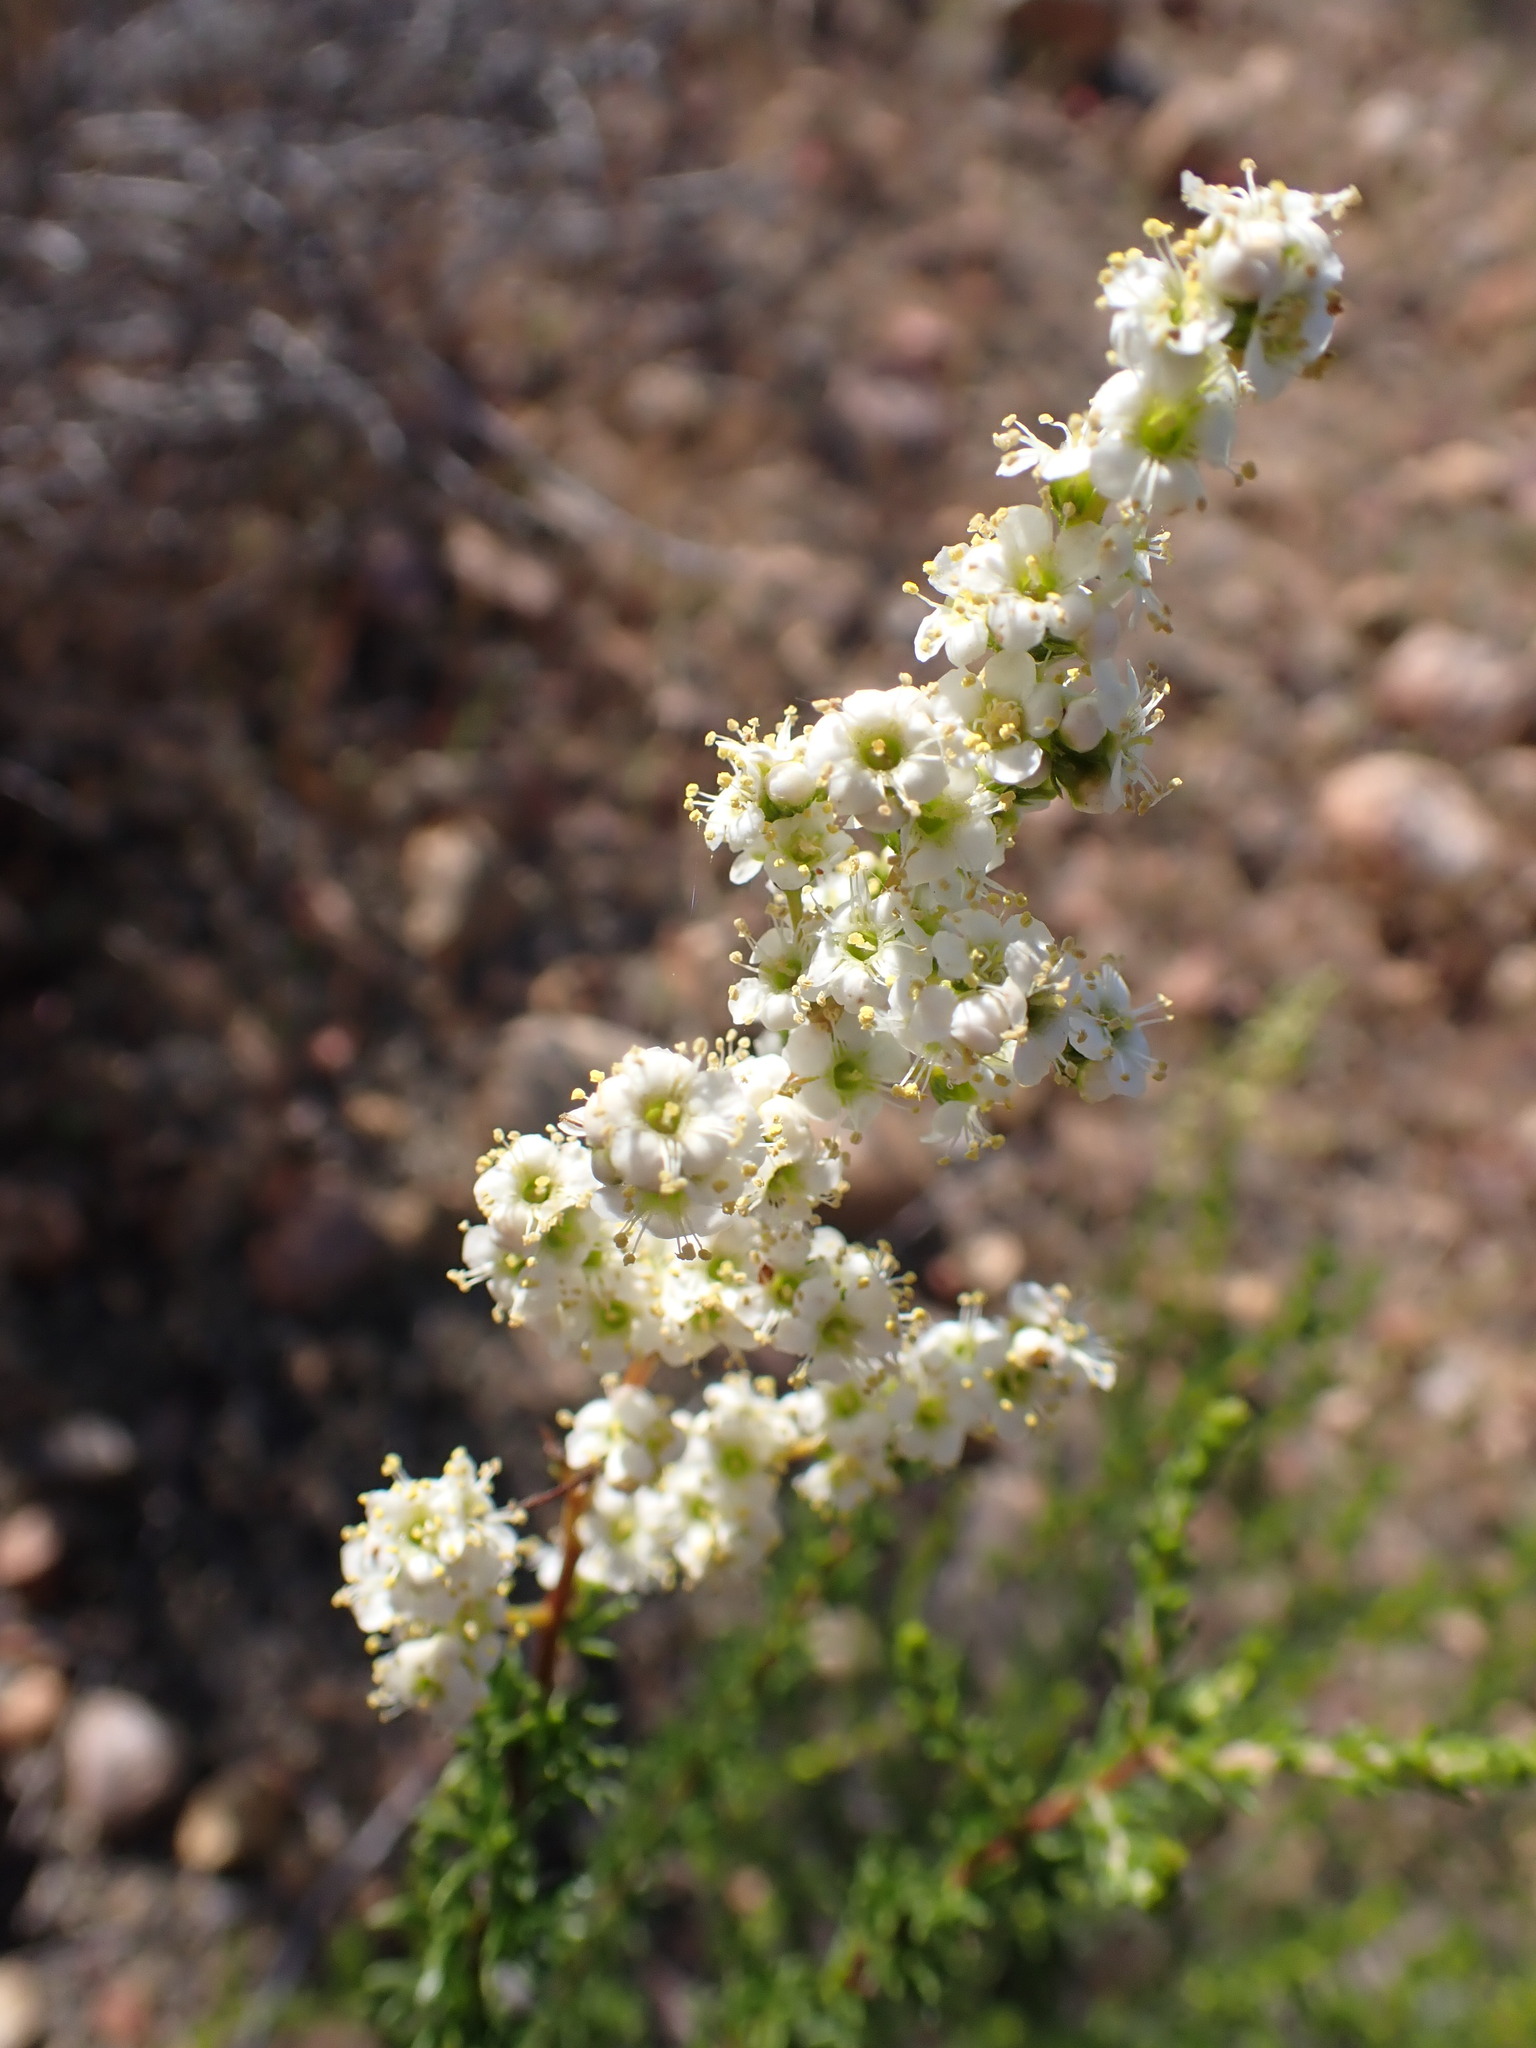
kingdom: Plantae
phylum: Tracheophyta
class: Magnoliopsida
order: Rosales
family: Rosaceae
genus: Adenostoma
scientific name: Adenostoma fasciculatum
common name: Chamise
